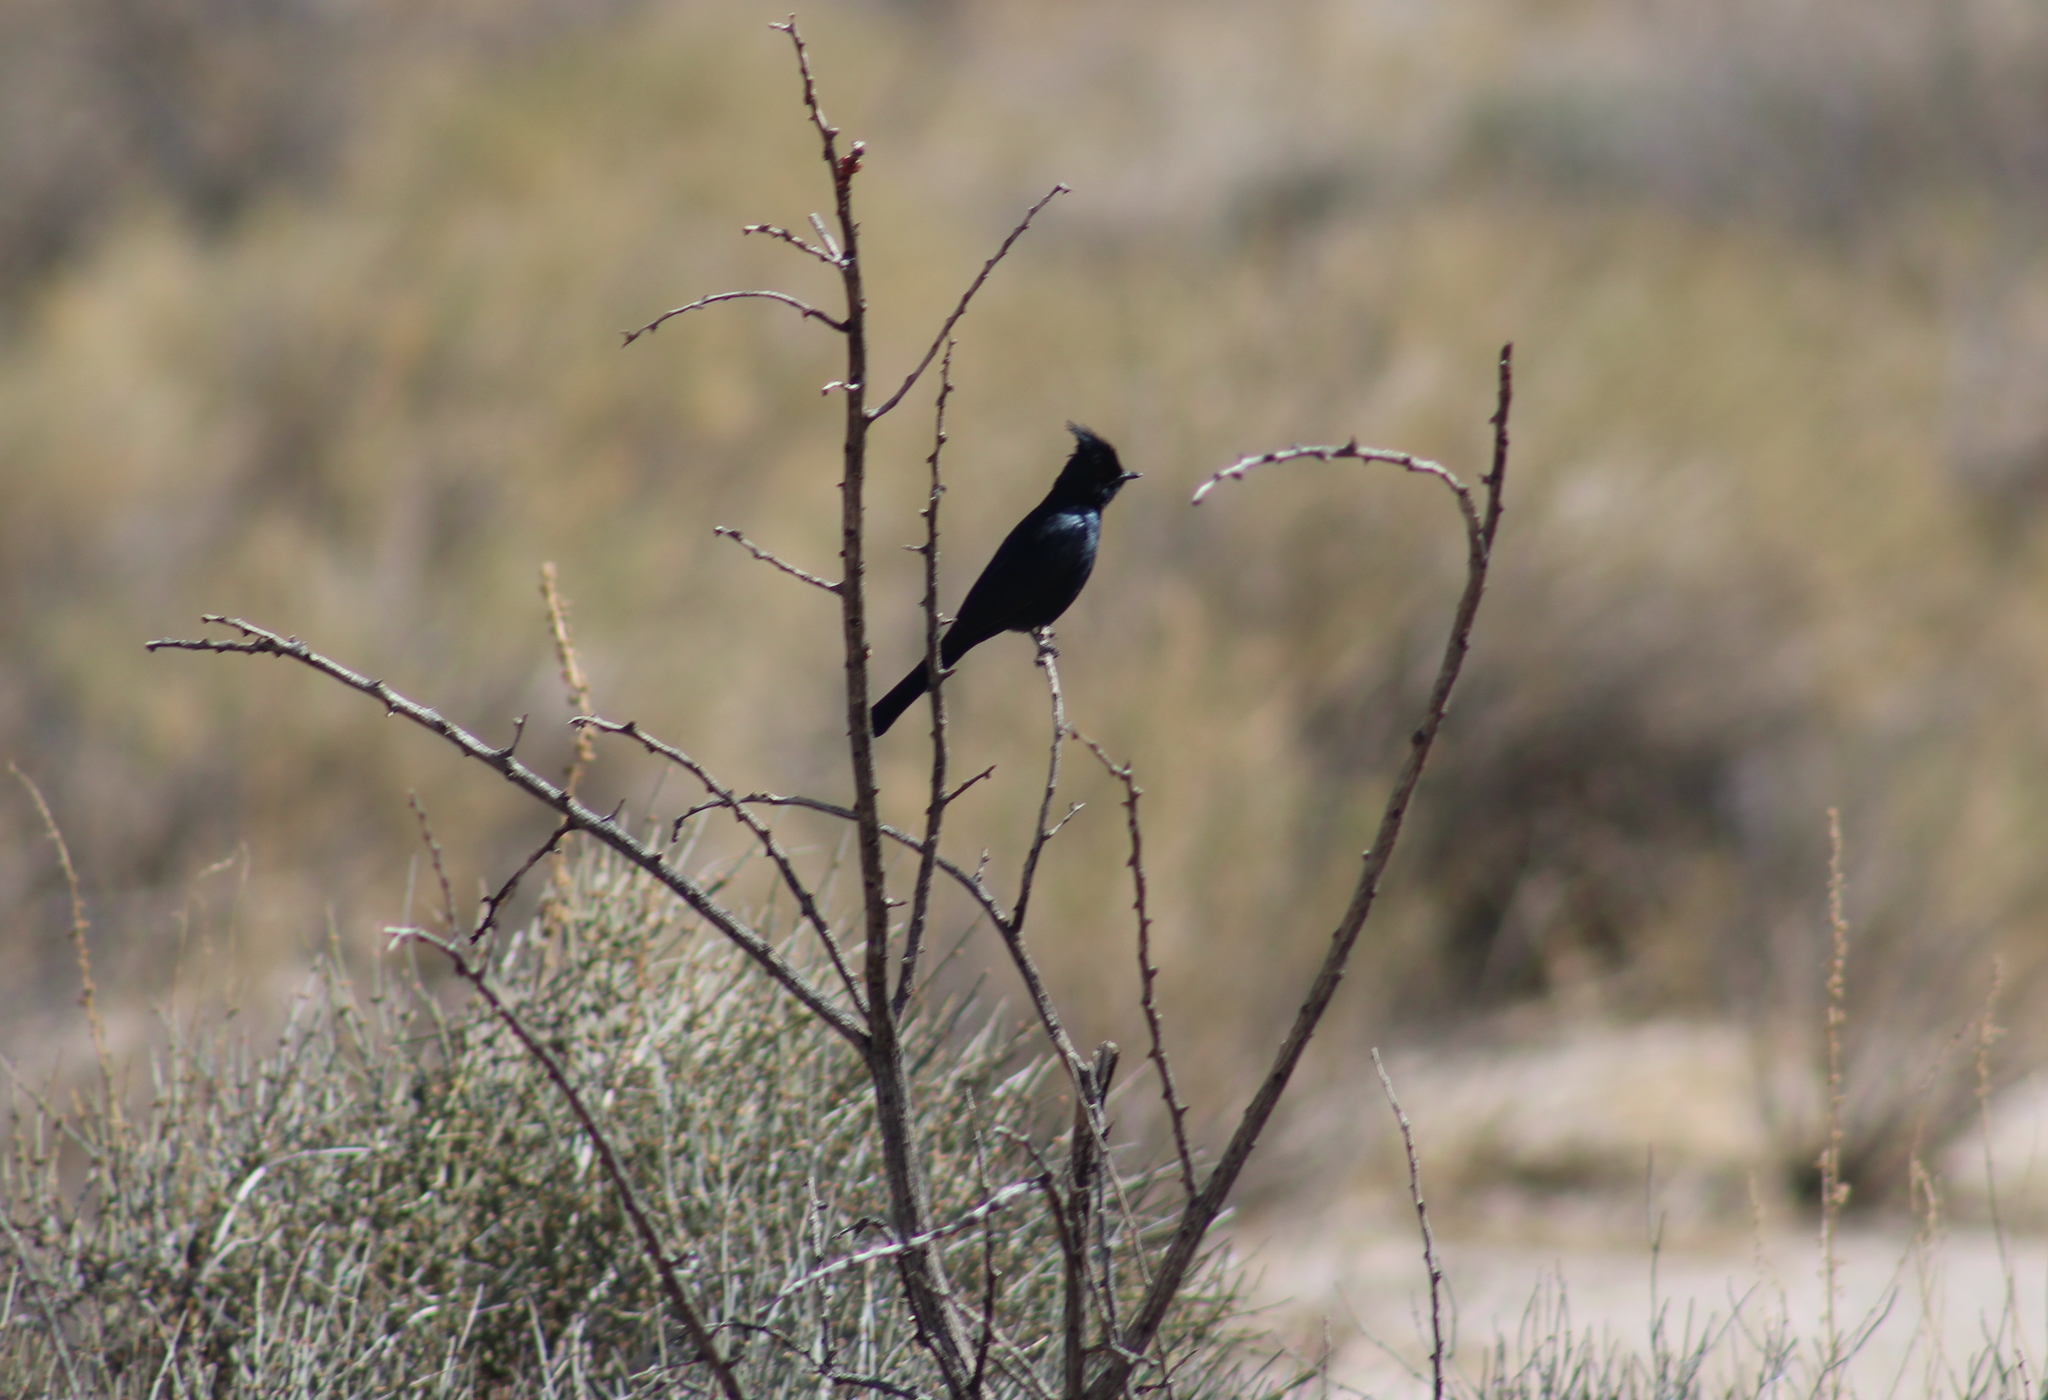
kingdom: Animalia
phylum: Chordata
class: Aves
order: Passeriformes
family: Ptilogonatidae
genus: Phainopepla
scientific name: Phainopepla nitens
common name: Phainopepla
